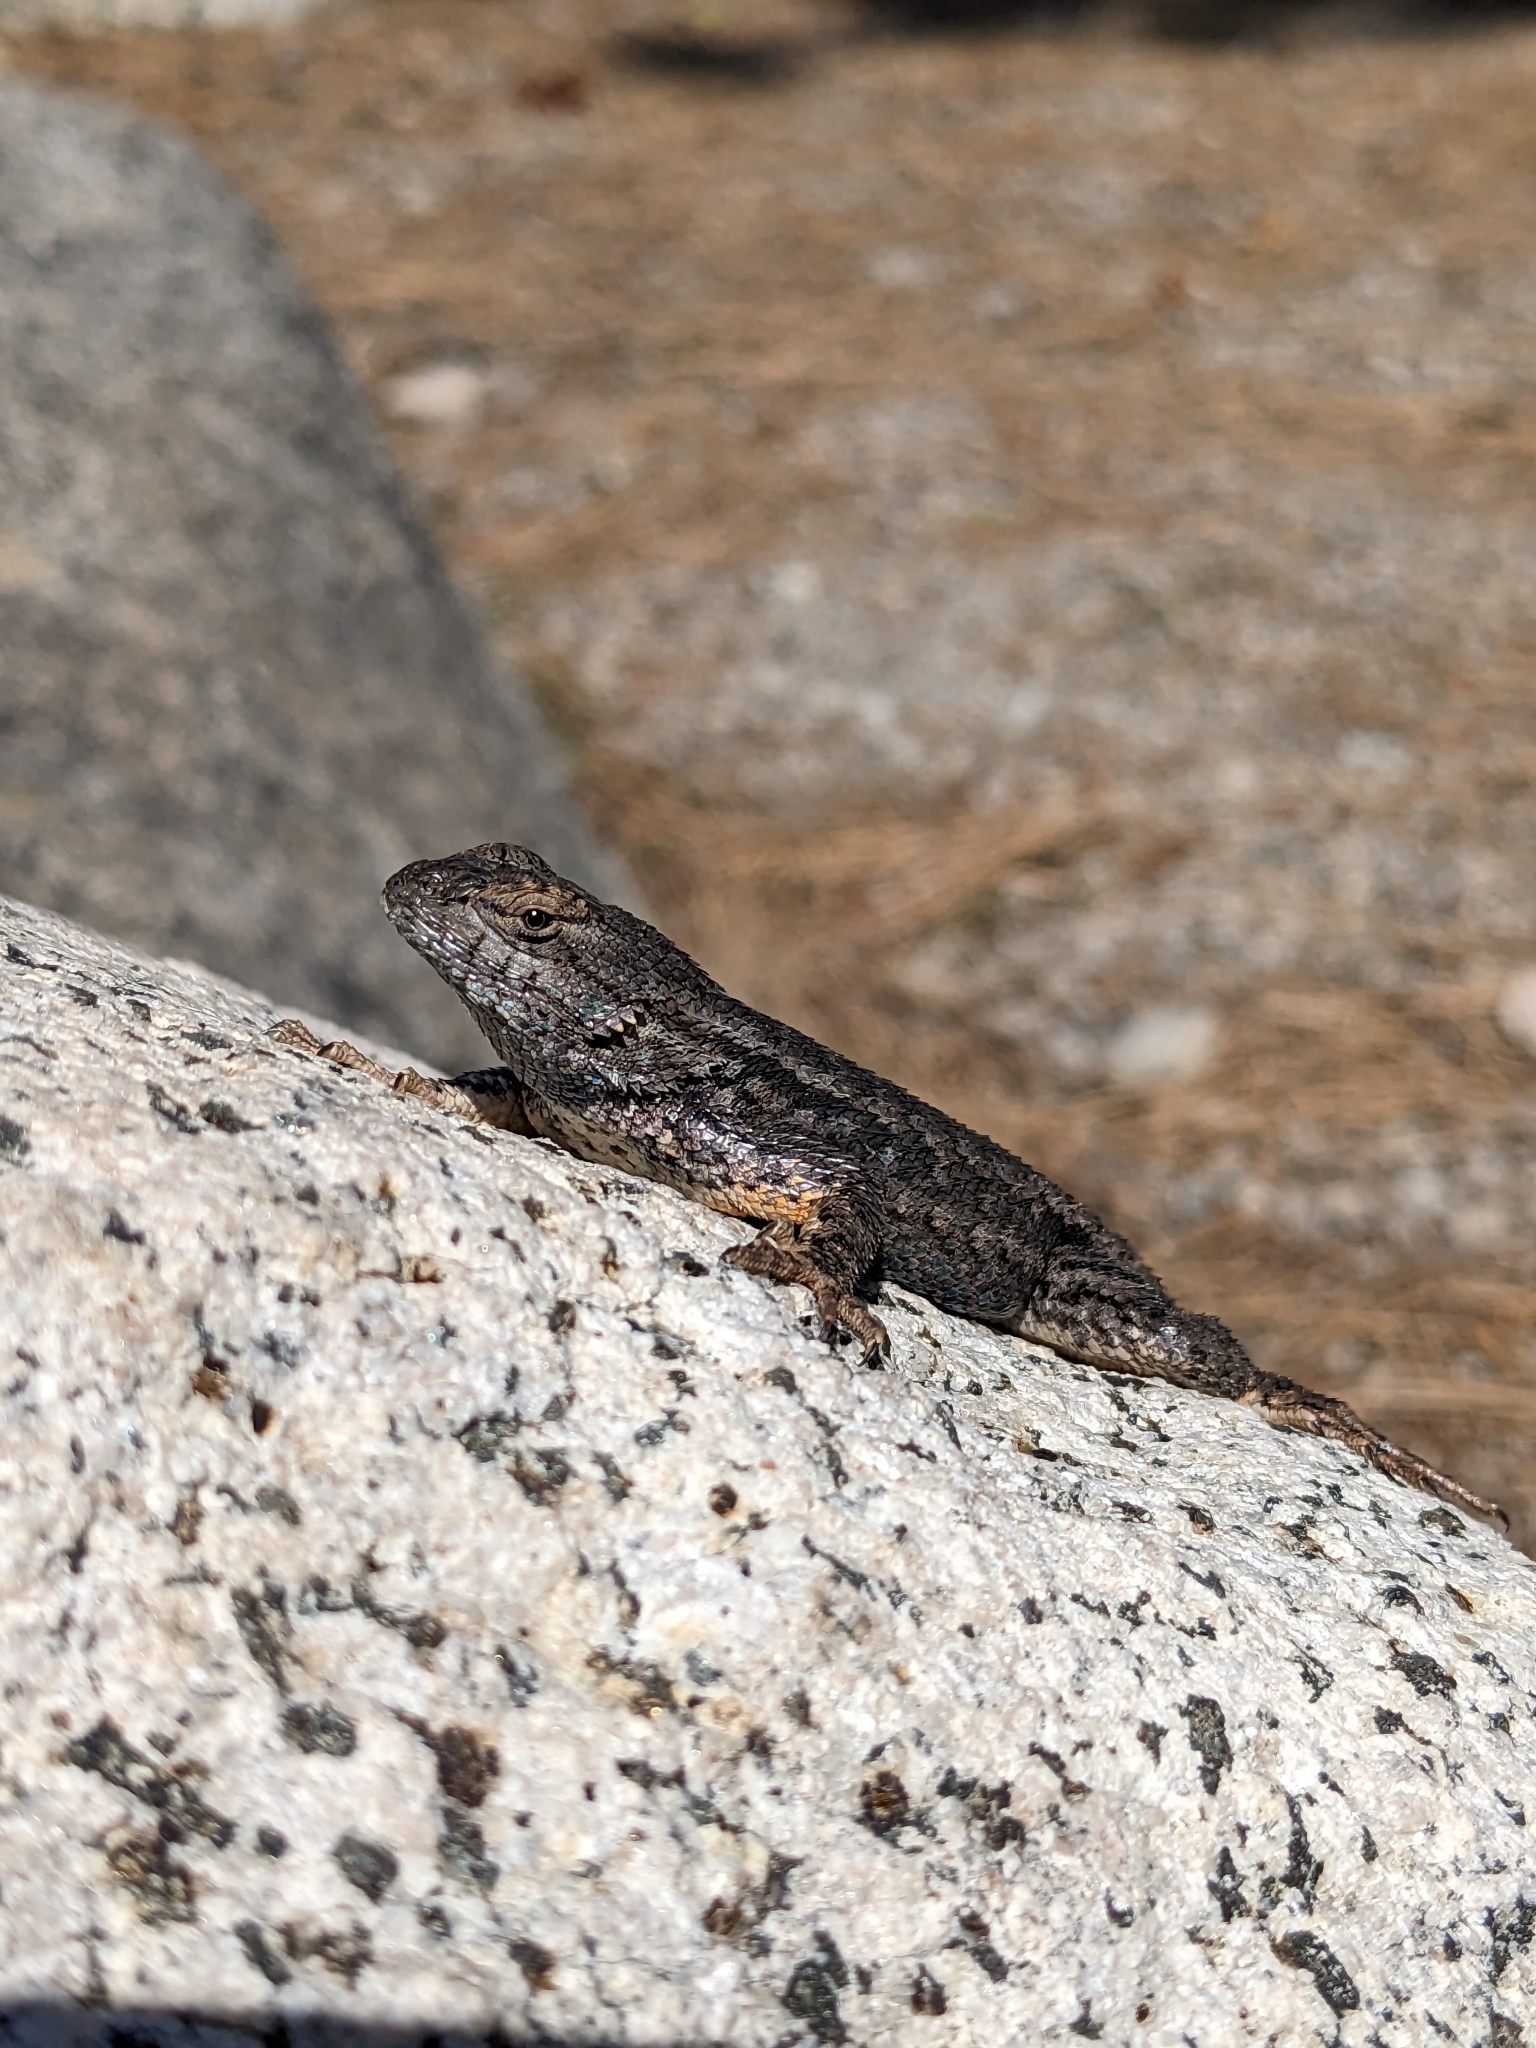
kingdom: Animalia
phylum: Chordata
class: Squamata
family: Phrynosomatidae
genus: Sceloporus
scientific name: Sceloporus occidentalis
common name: Western fence lizard
